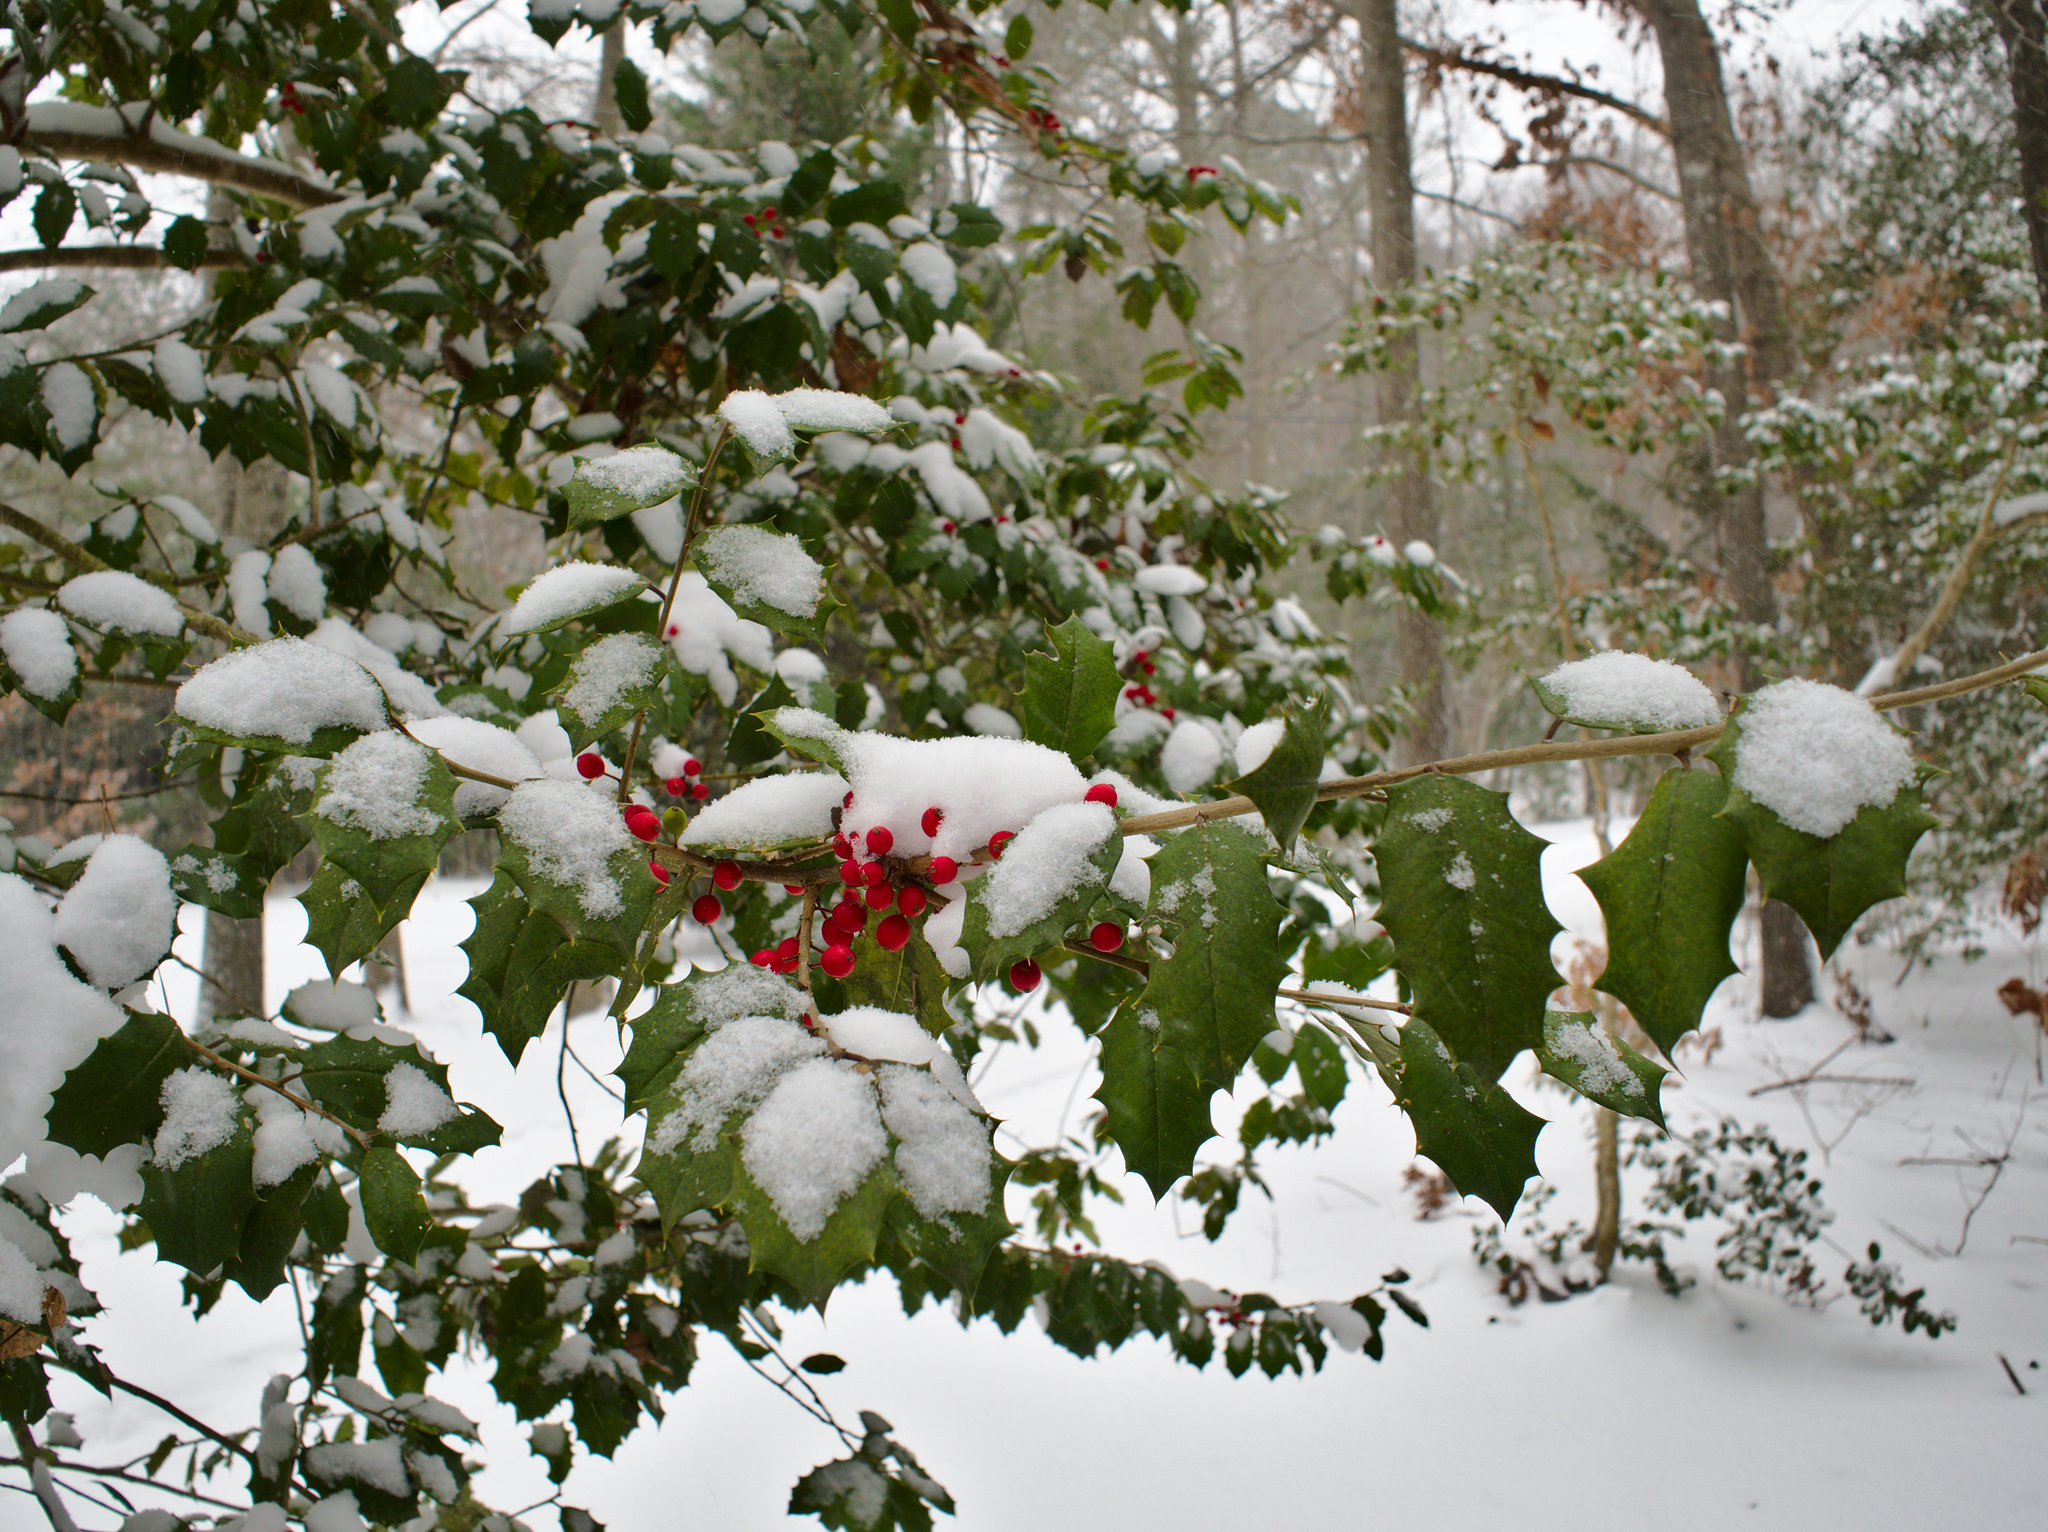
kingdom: Plantae
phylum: Tracheophyta
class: Magnoliopsida
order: Aquifoliales
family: Aquifoliaceae
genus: Ilex
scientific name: Ilex opaca
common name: American holly
